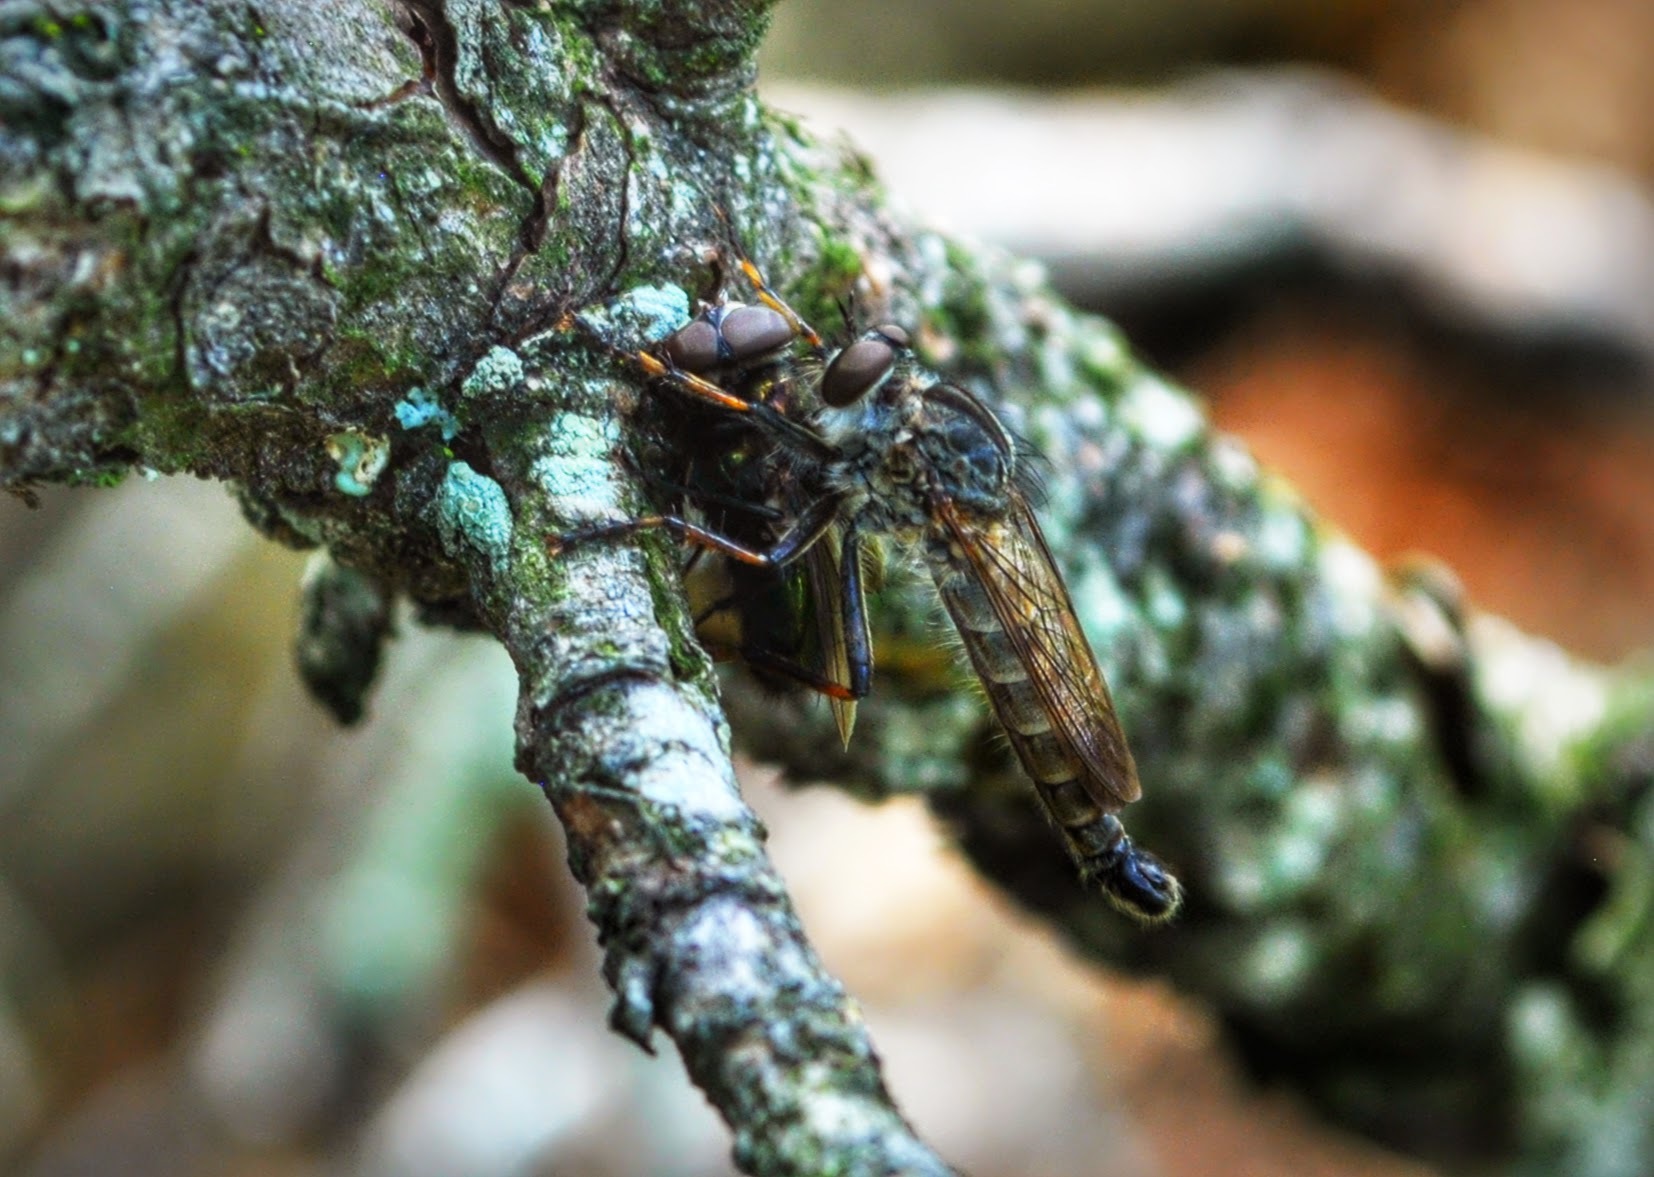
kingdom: Animalia
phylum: Arthropoda
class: Insecta
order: Diptera
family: Asilidae
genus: Machimus
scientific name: Machimus sadyates
